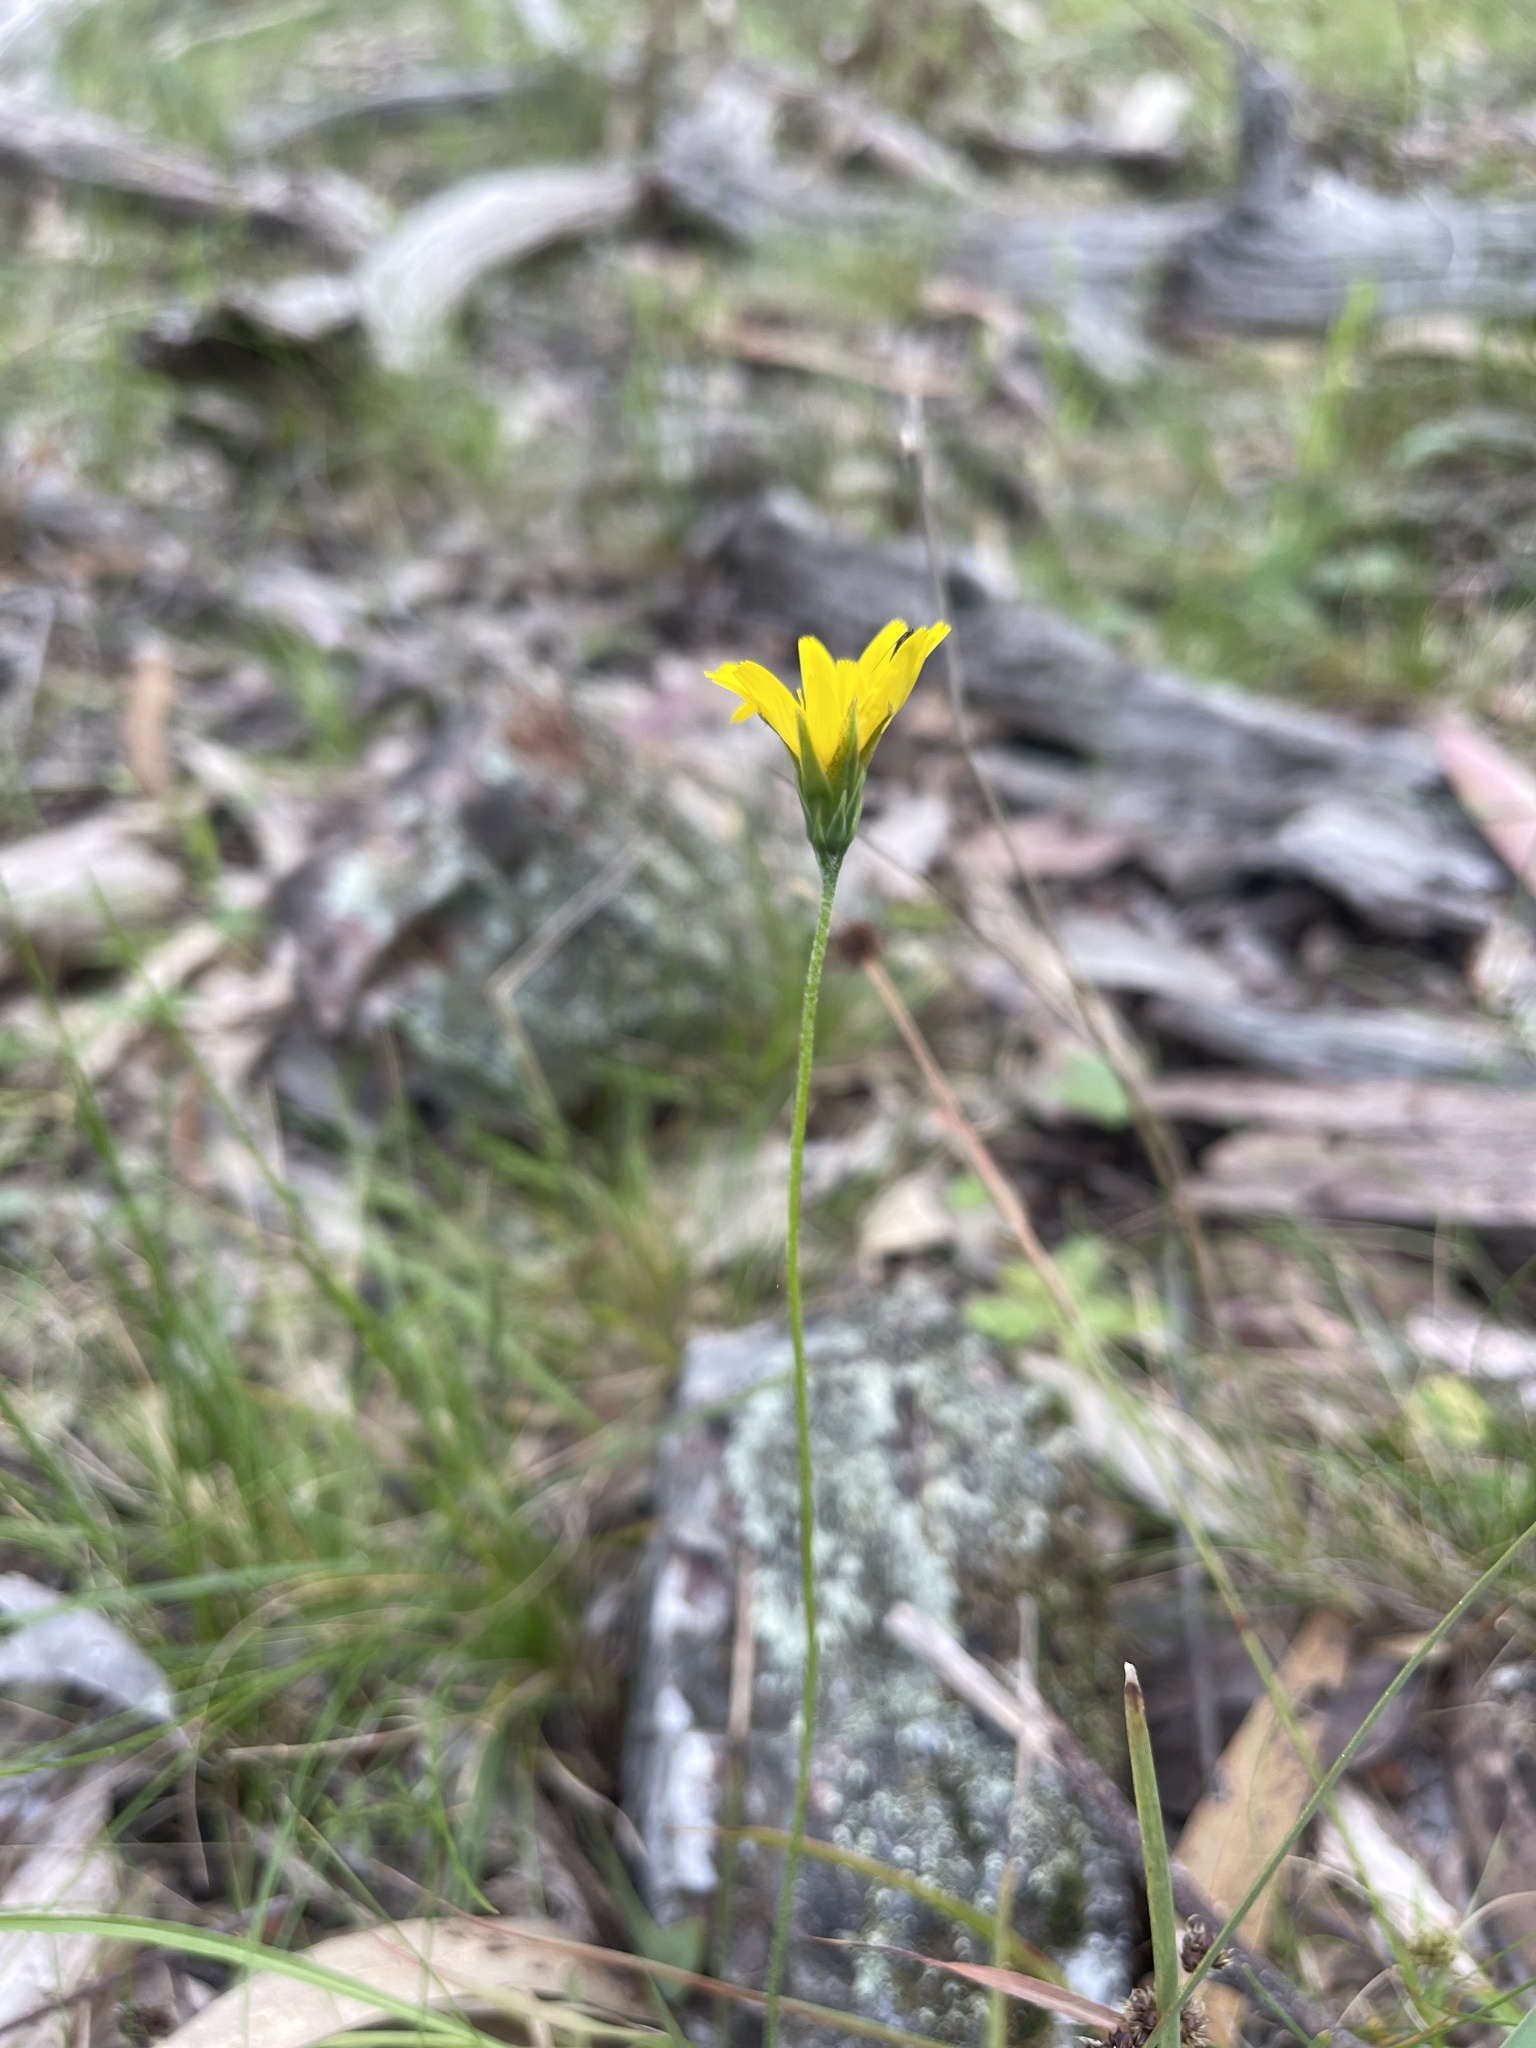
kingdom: Plantae
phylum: Tracheophyta
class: Magnoliopsida
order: Asterales
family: Asteraceae
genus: Microseris
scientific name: Microseris lanceolata
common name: Yam daisy
